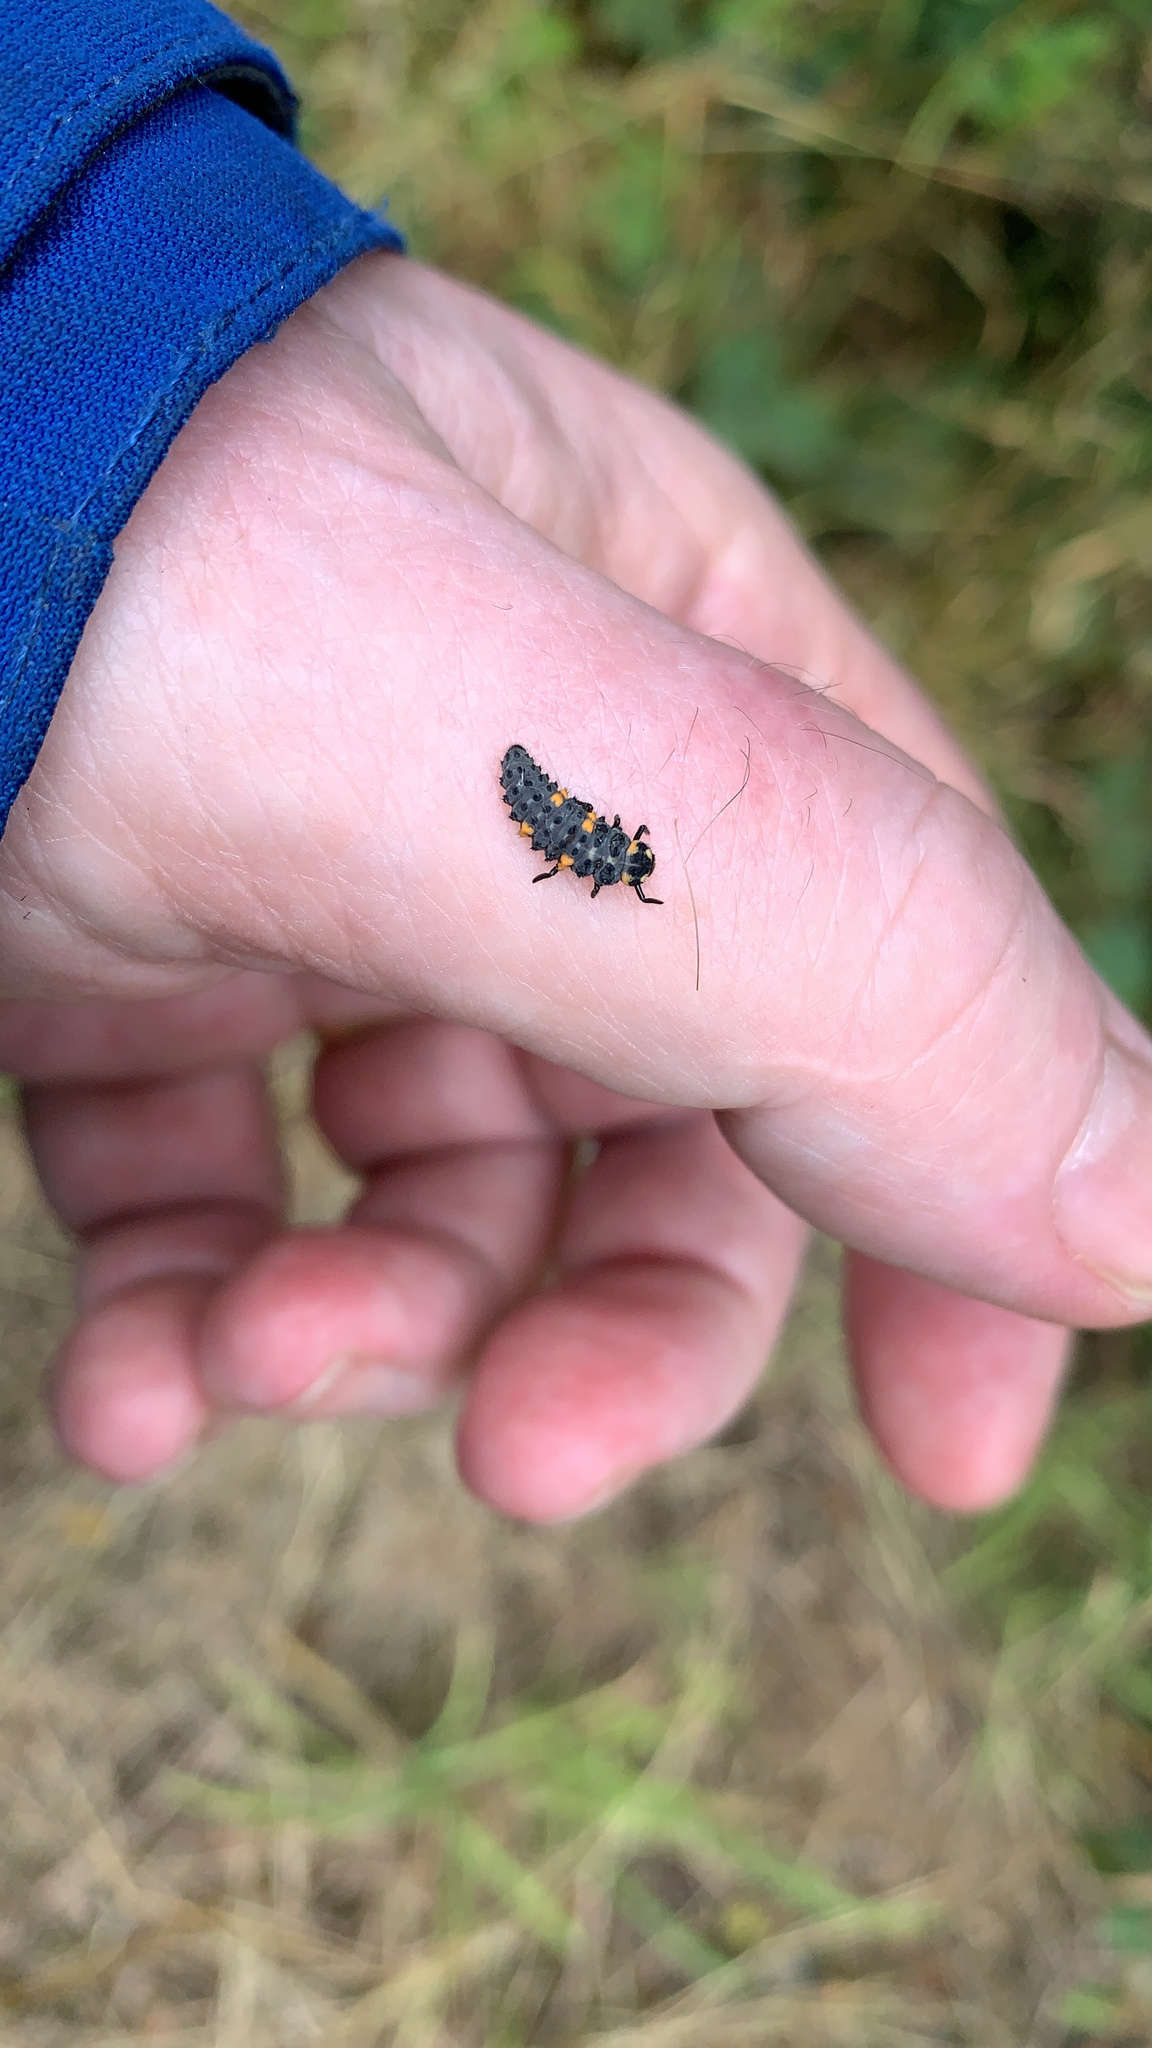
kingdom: Animalia
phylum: Arthropoda
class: Insecta
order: Coleoptera
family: Coccinellidae
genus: Coccinella
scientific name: Coccinella septempunctata
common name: Sevenspotted lady beetle
